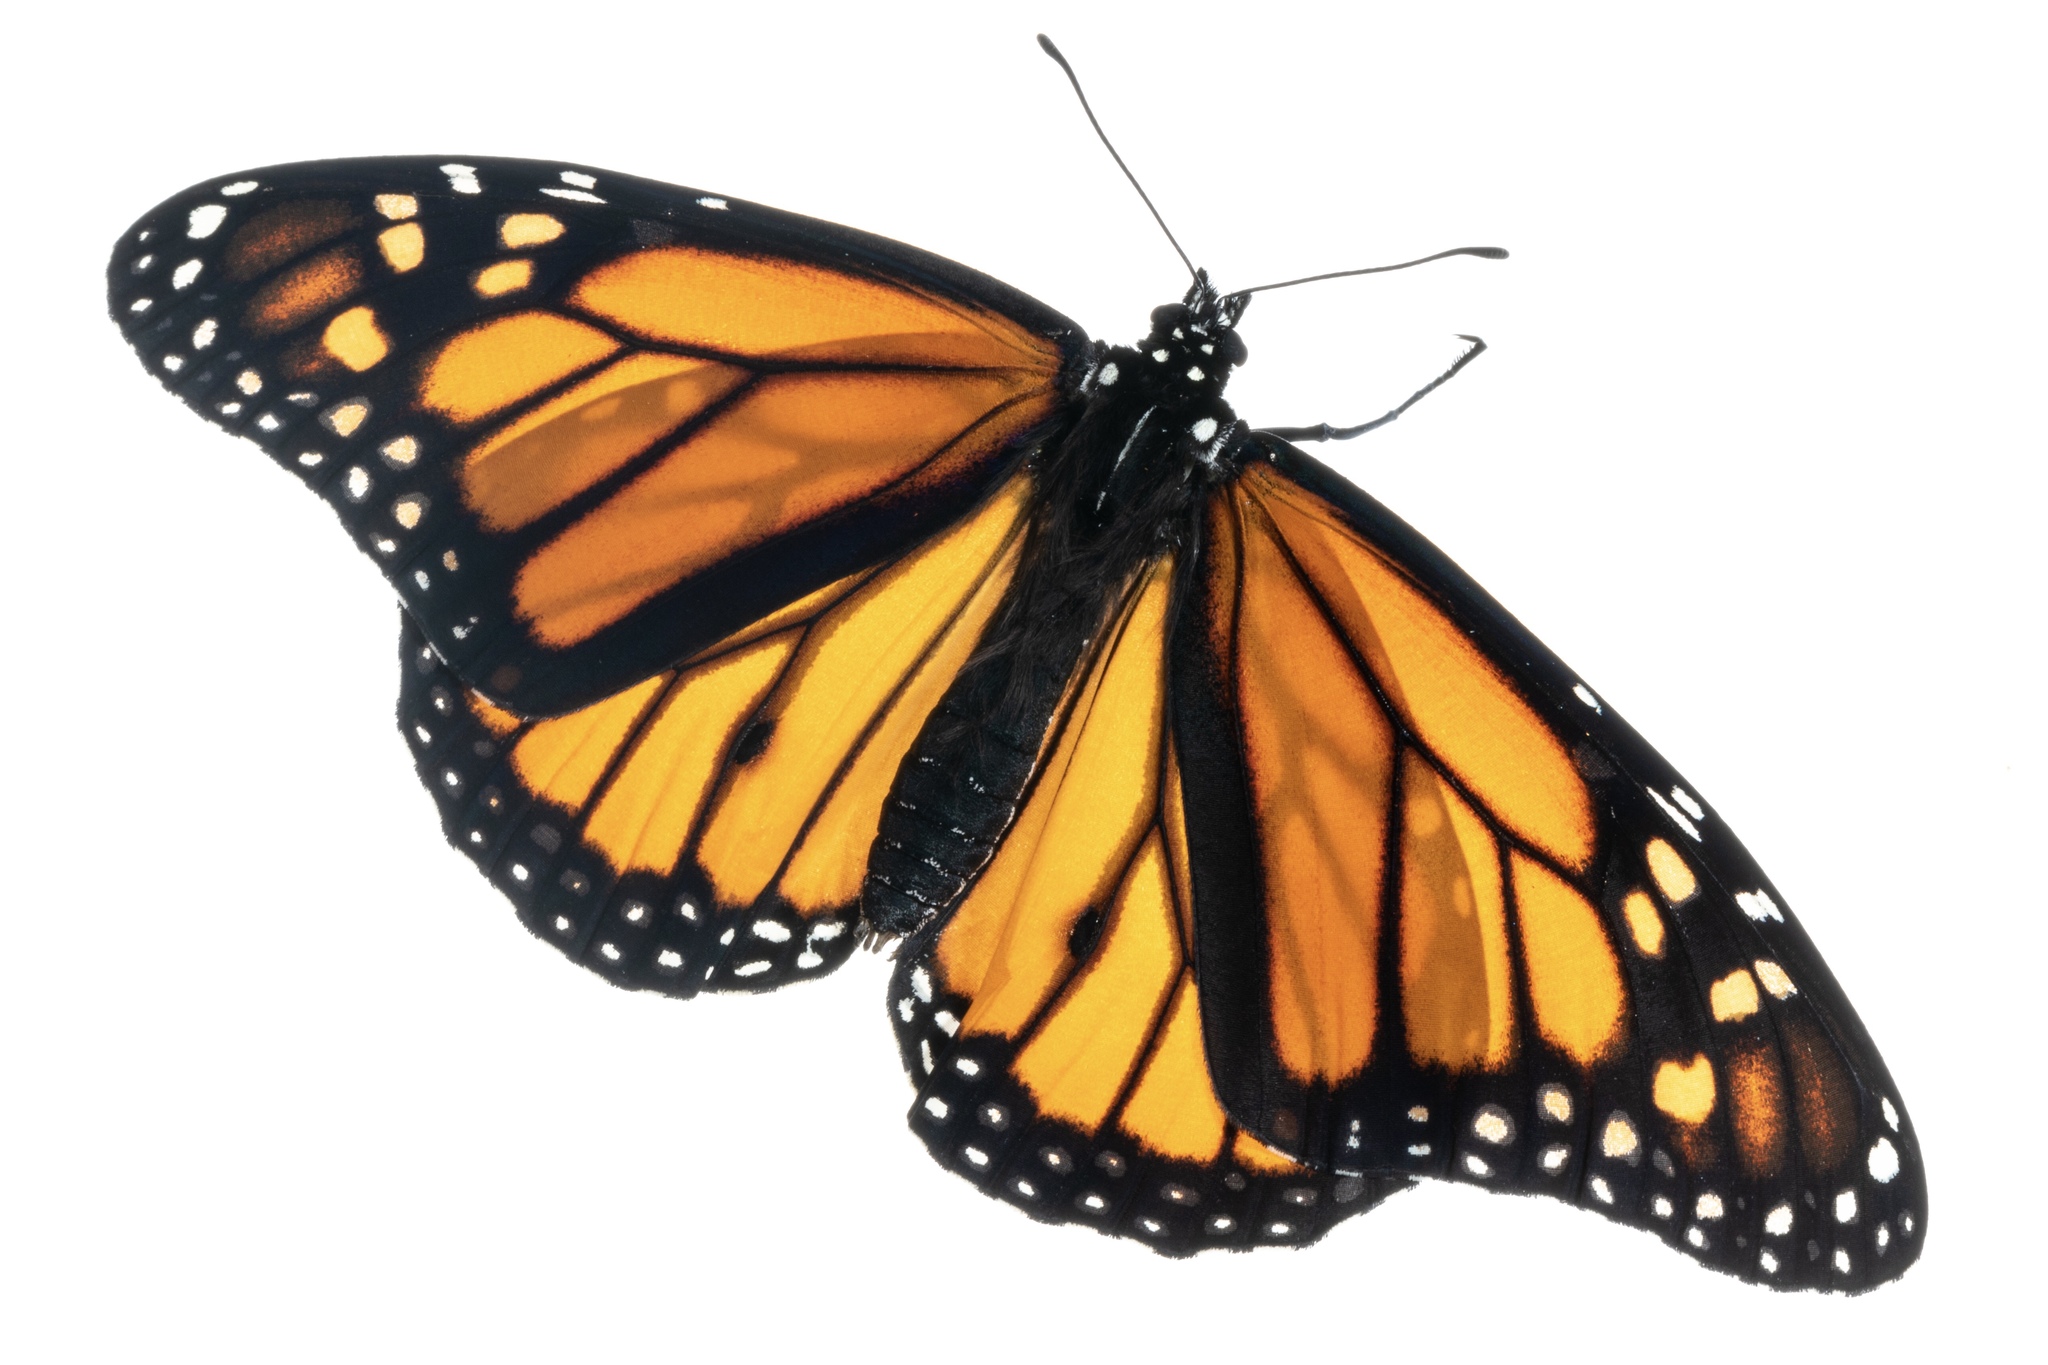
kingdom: Animalia
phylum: Arthropoda
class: Insecta
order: Lepidoptera
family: Nymphalidae
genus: Danaus
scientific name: Danaus plexippus
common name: Monarch
